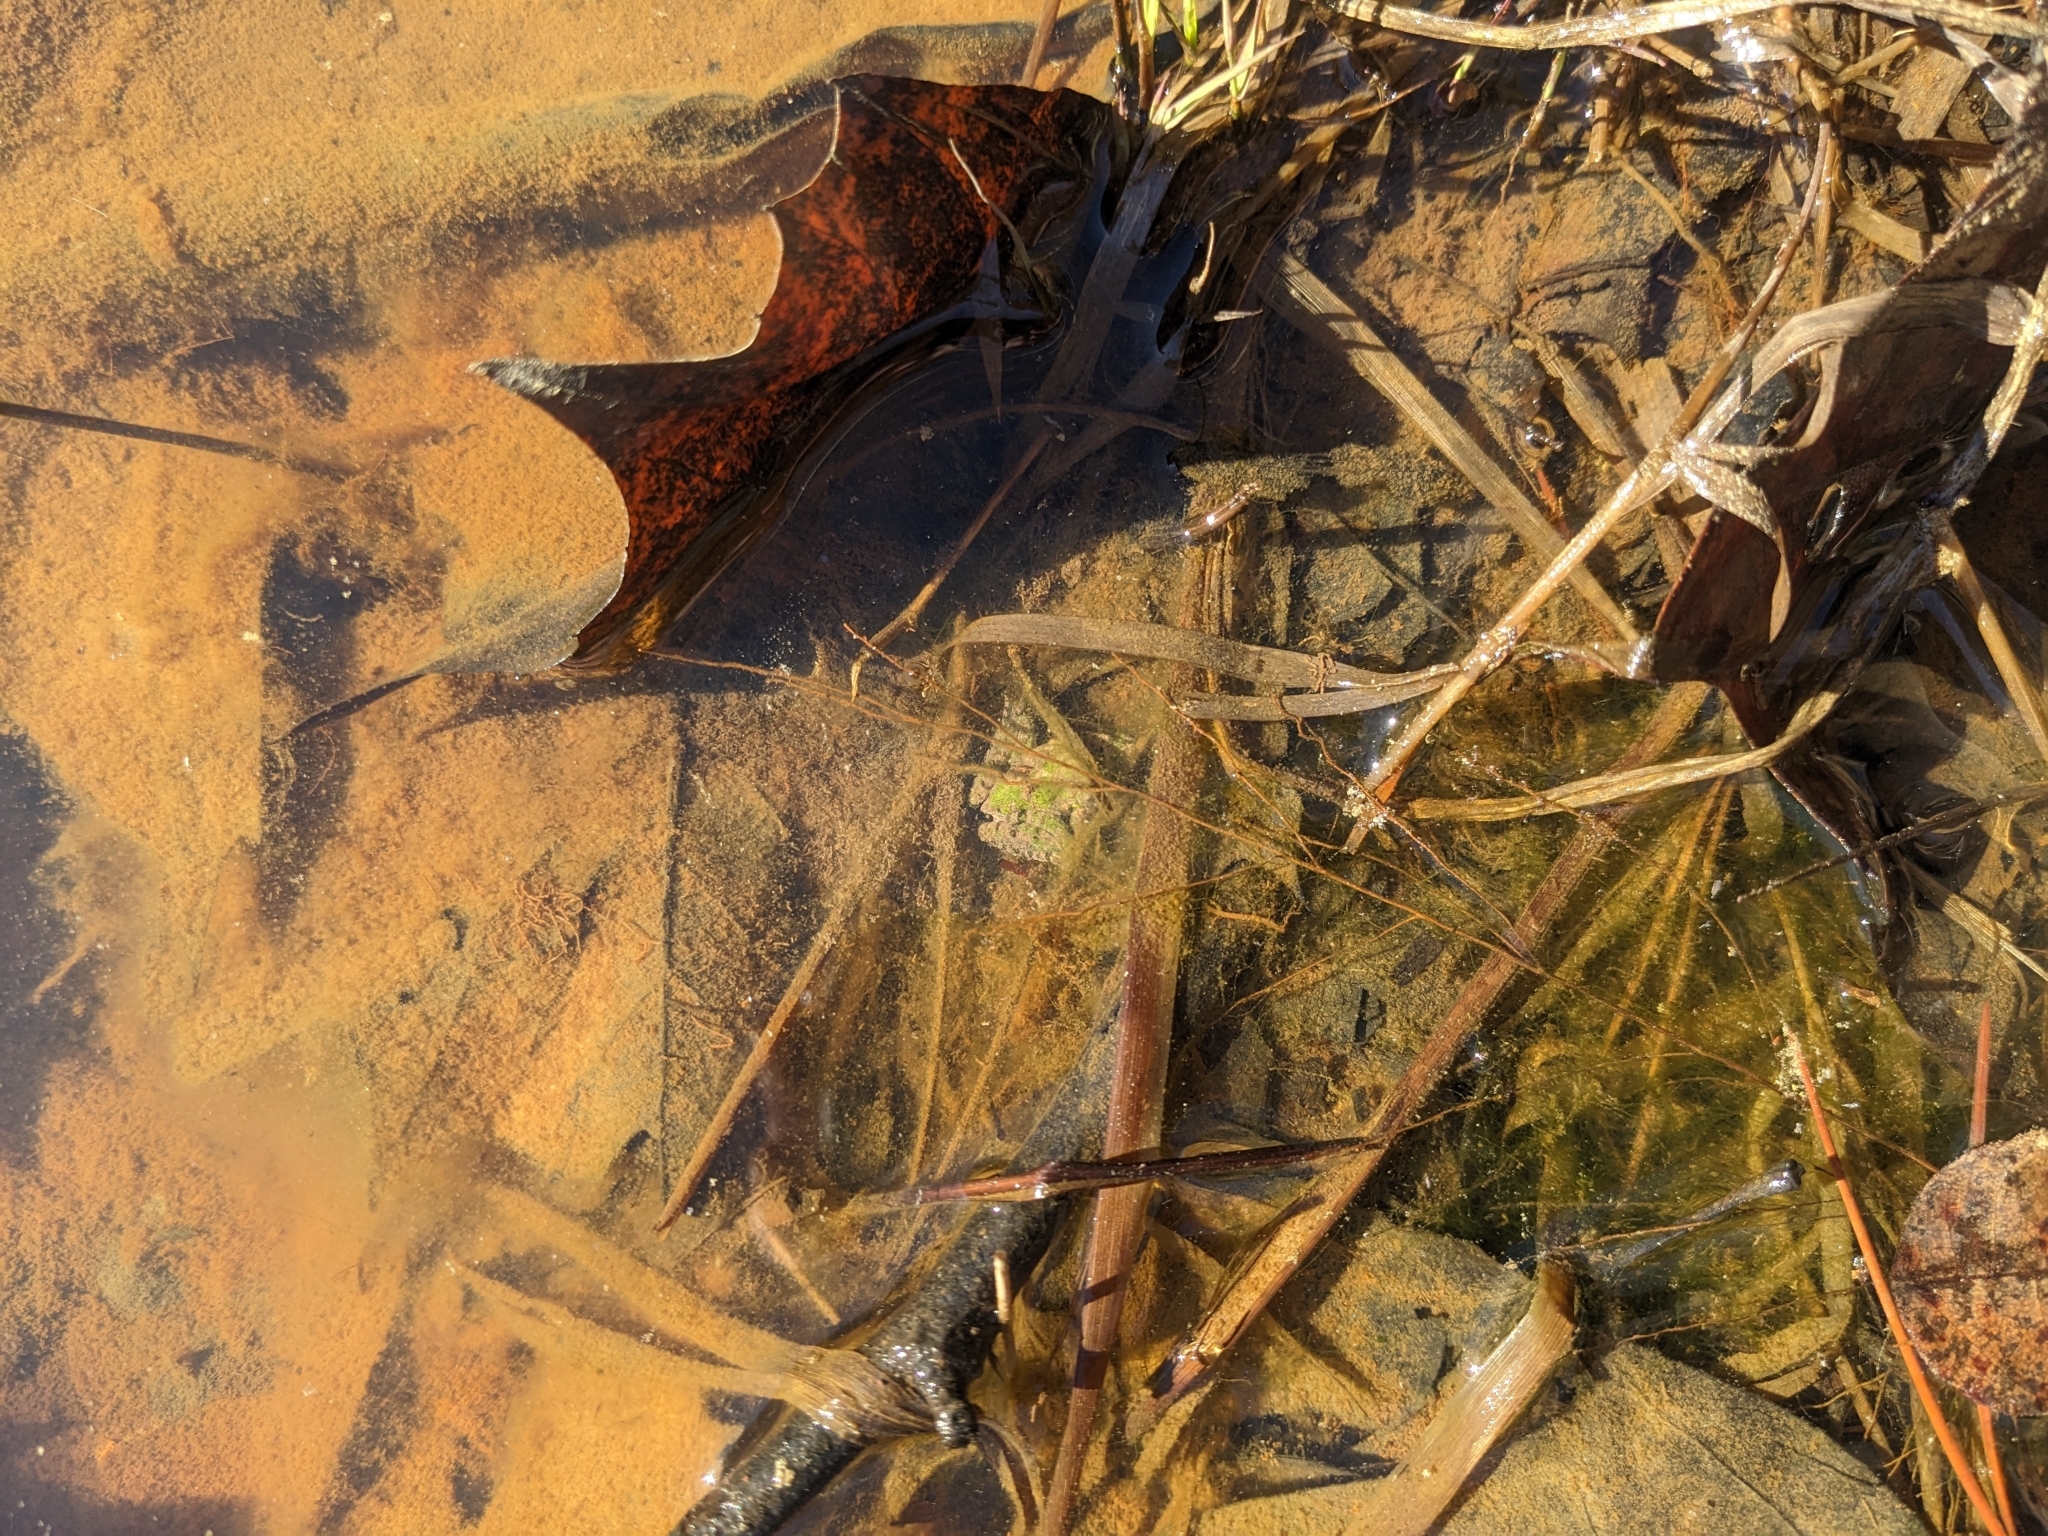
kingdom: Animalia
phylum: Chordata
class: Amphibia
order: Anura
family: Hylidae
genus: Acris
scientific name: Acris crepitans
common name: Northern cricket frog
